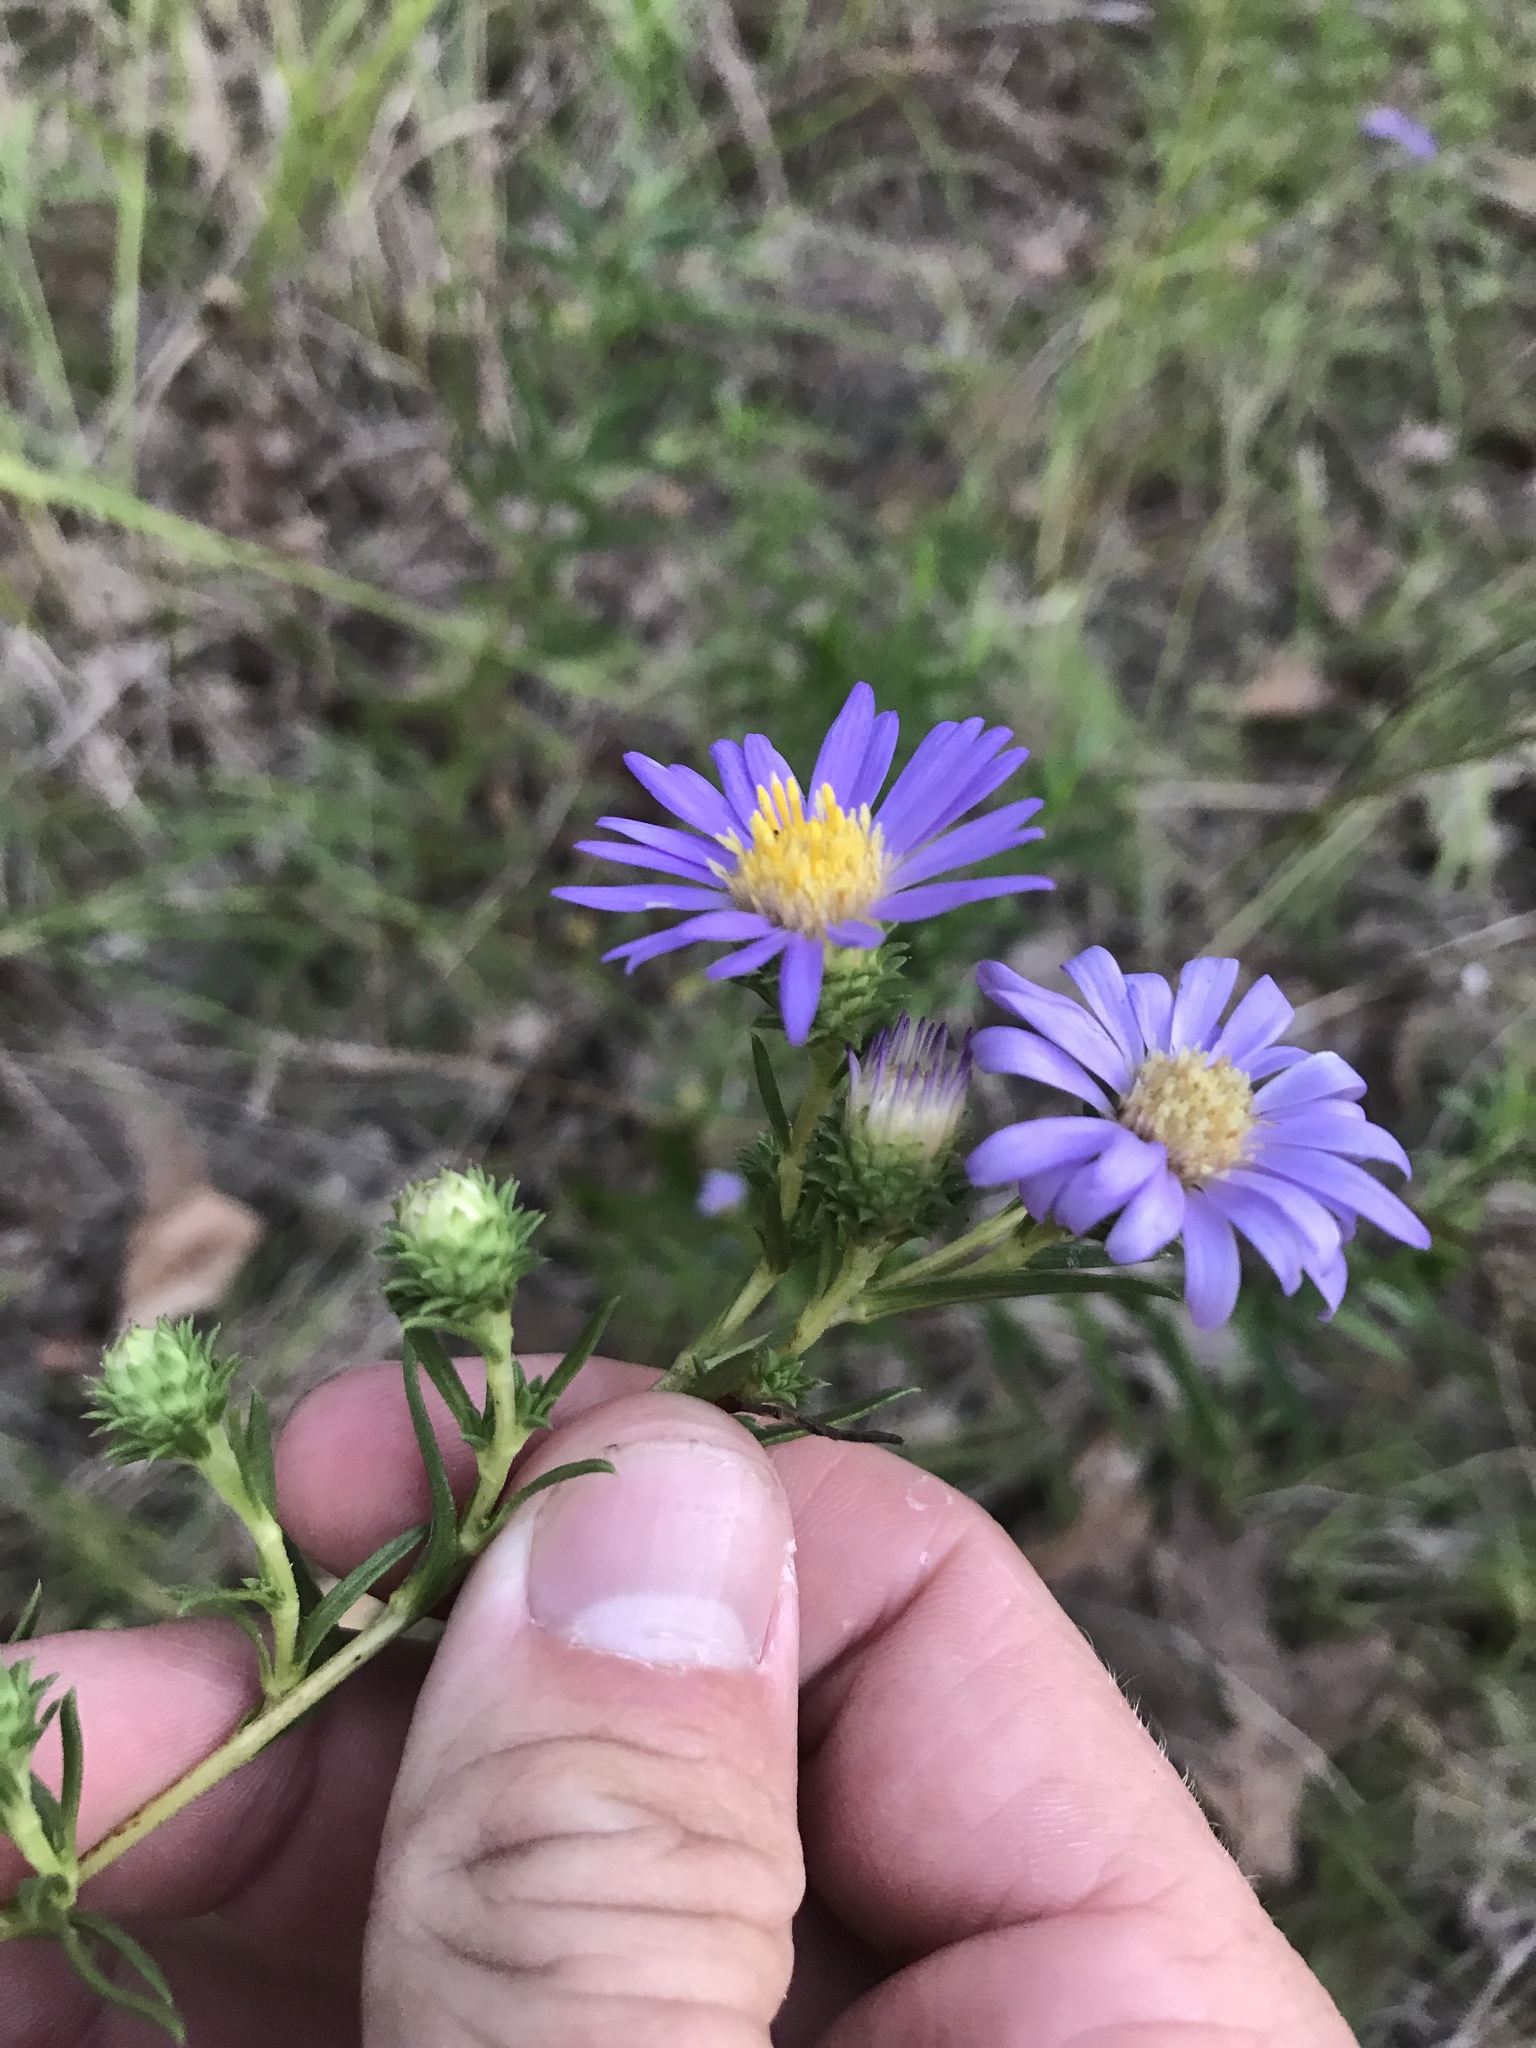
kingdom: Plantae
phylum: Tracheophyta
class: Magnoliopsida
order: Asterales
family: Asteraceae
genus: Eurybia
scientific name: Eurybia hemispherica
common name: Showy aster
